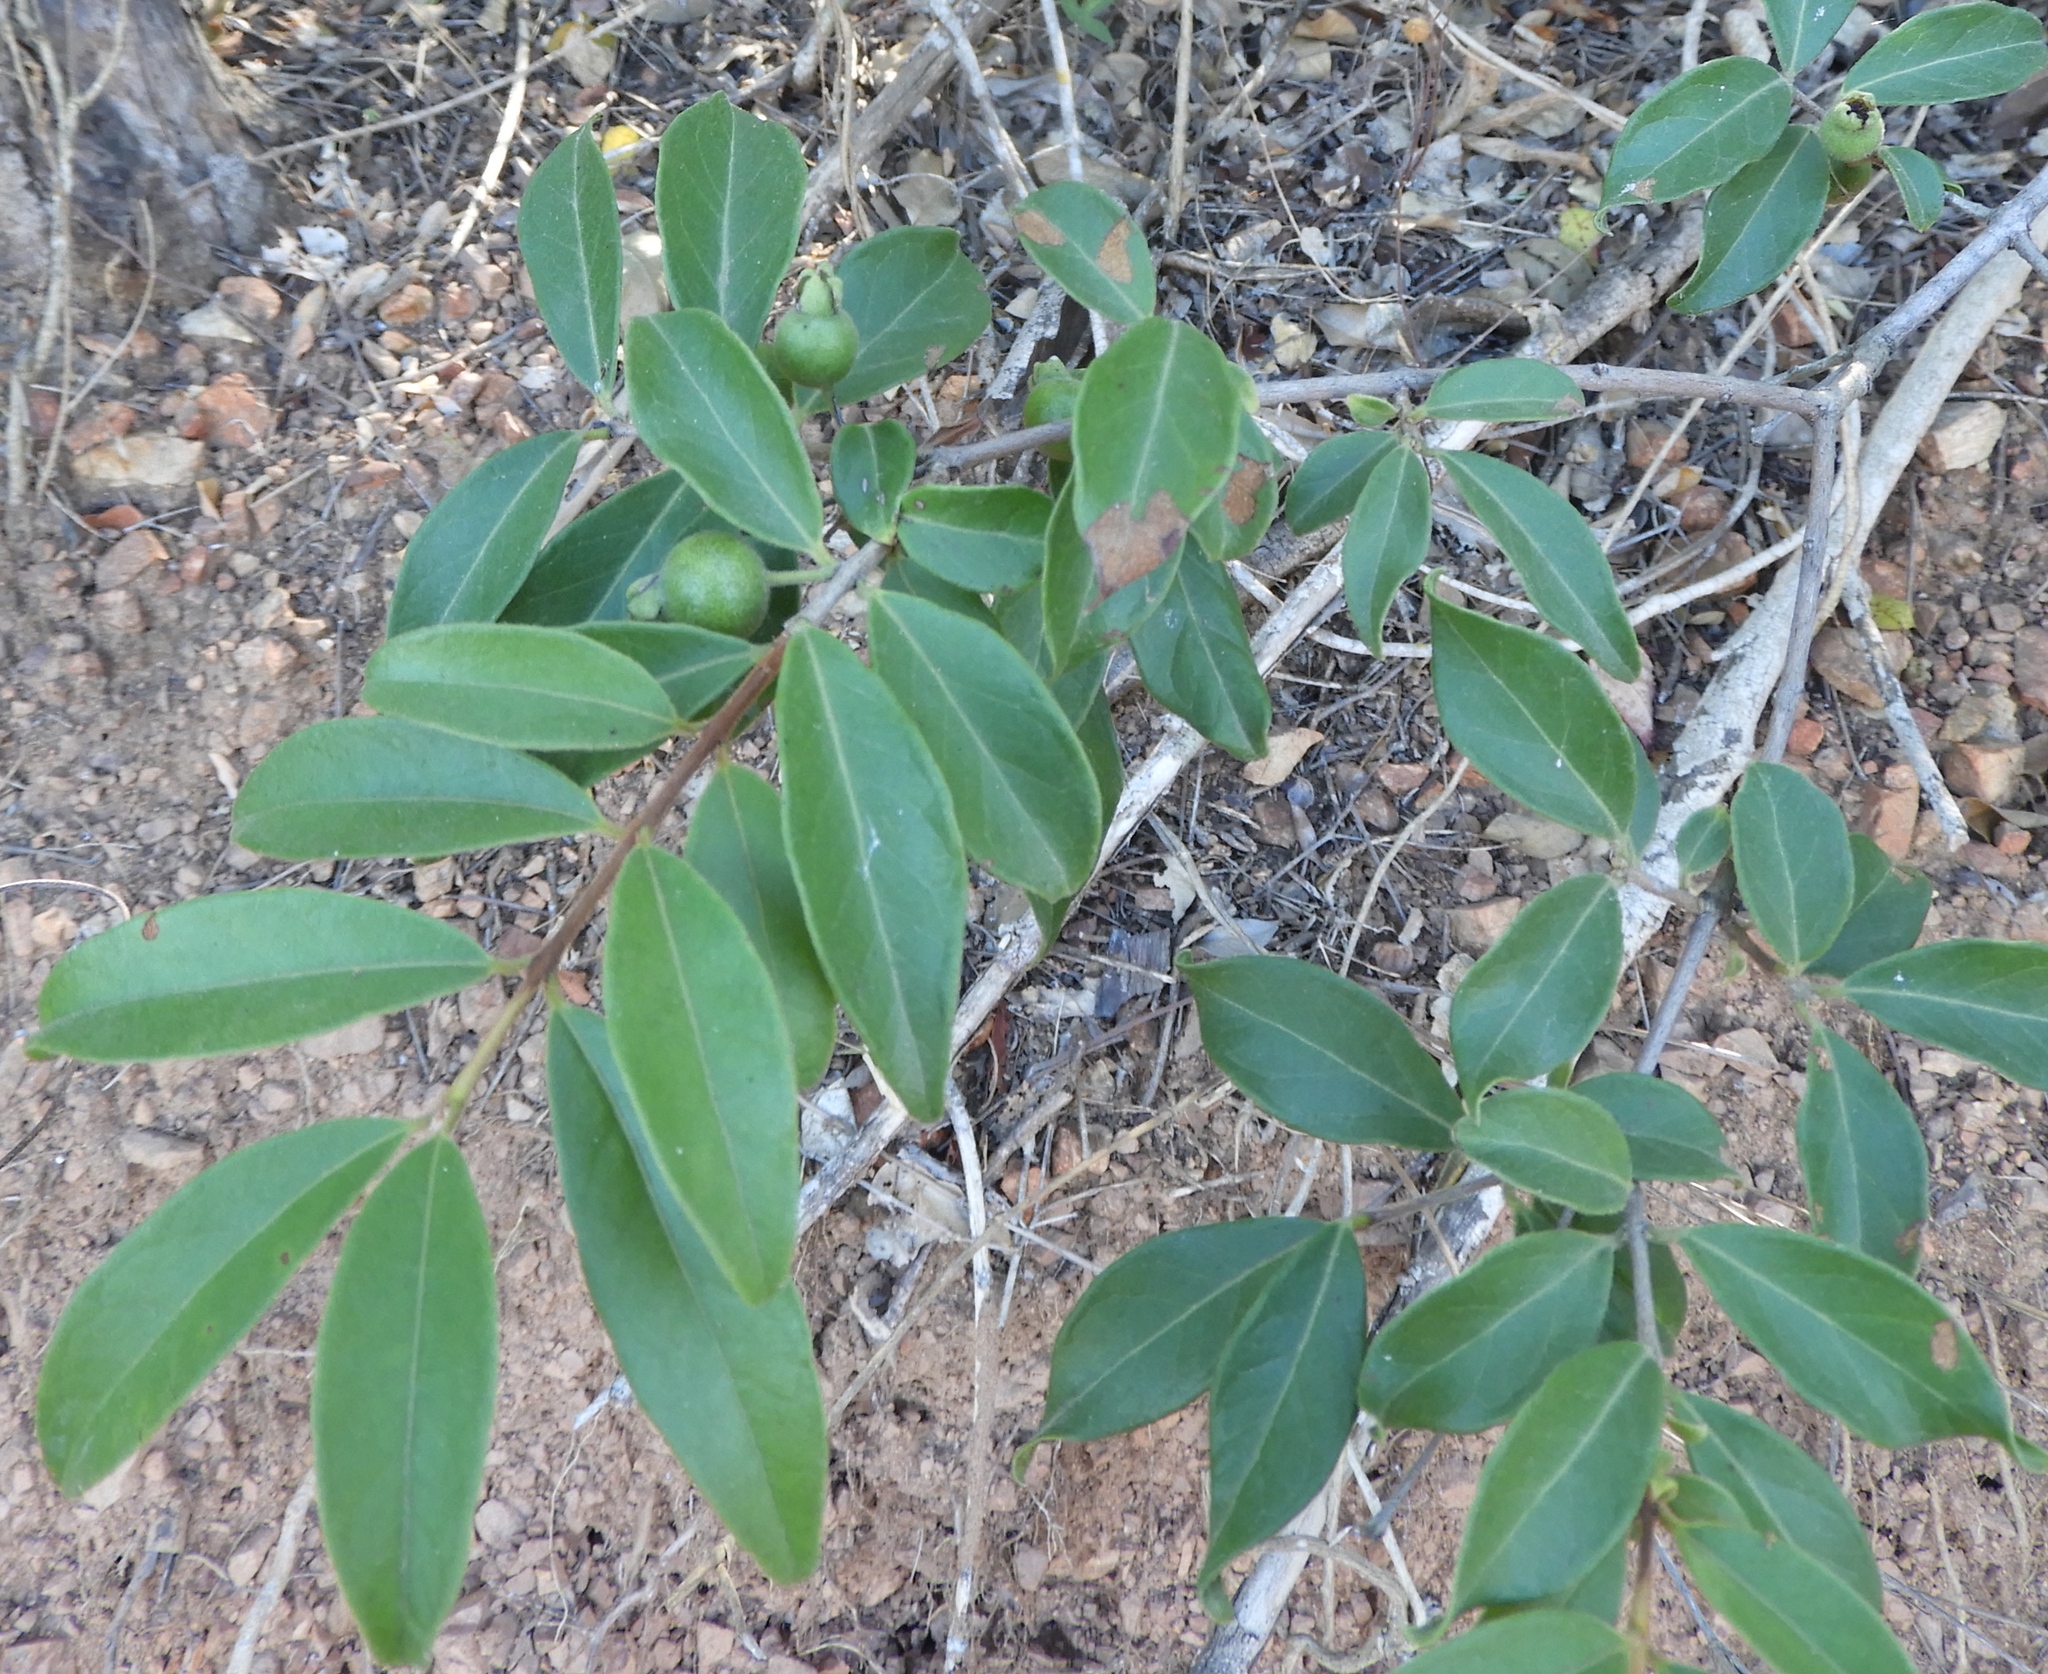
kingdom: Plantae
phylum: Tracheophyta
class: Magnoliopsida
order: Myrtales
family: Myrtaceae
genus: Psidium
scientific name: Psidium sartorianum
